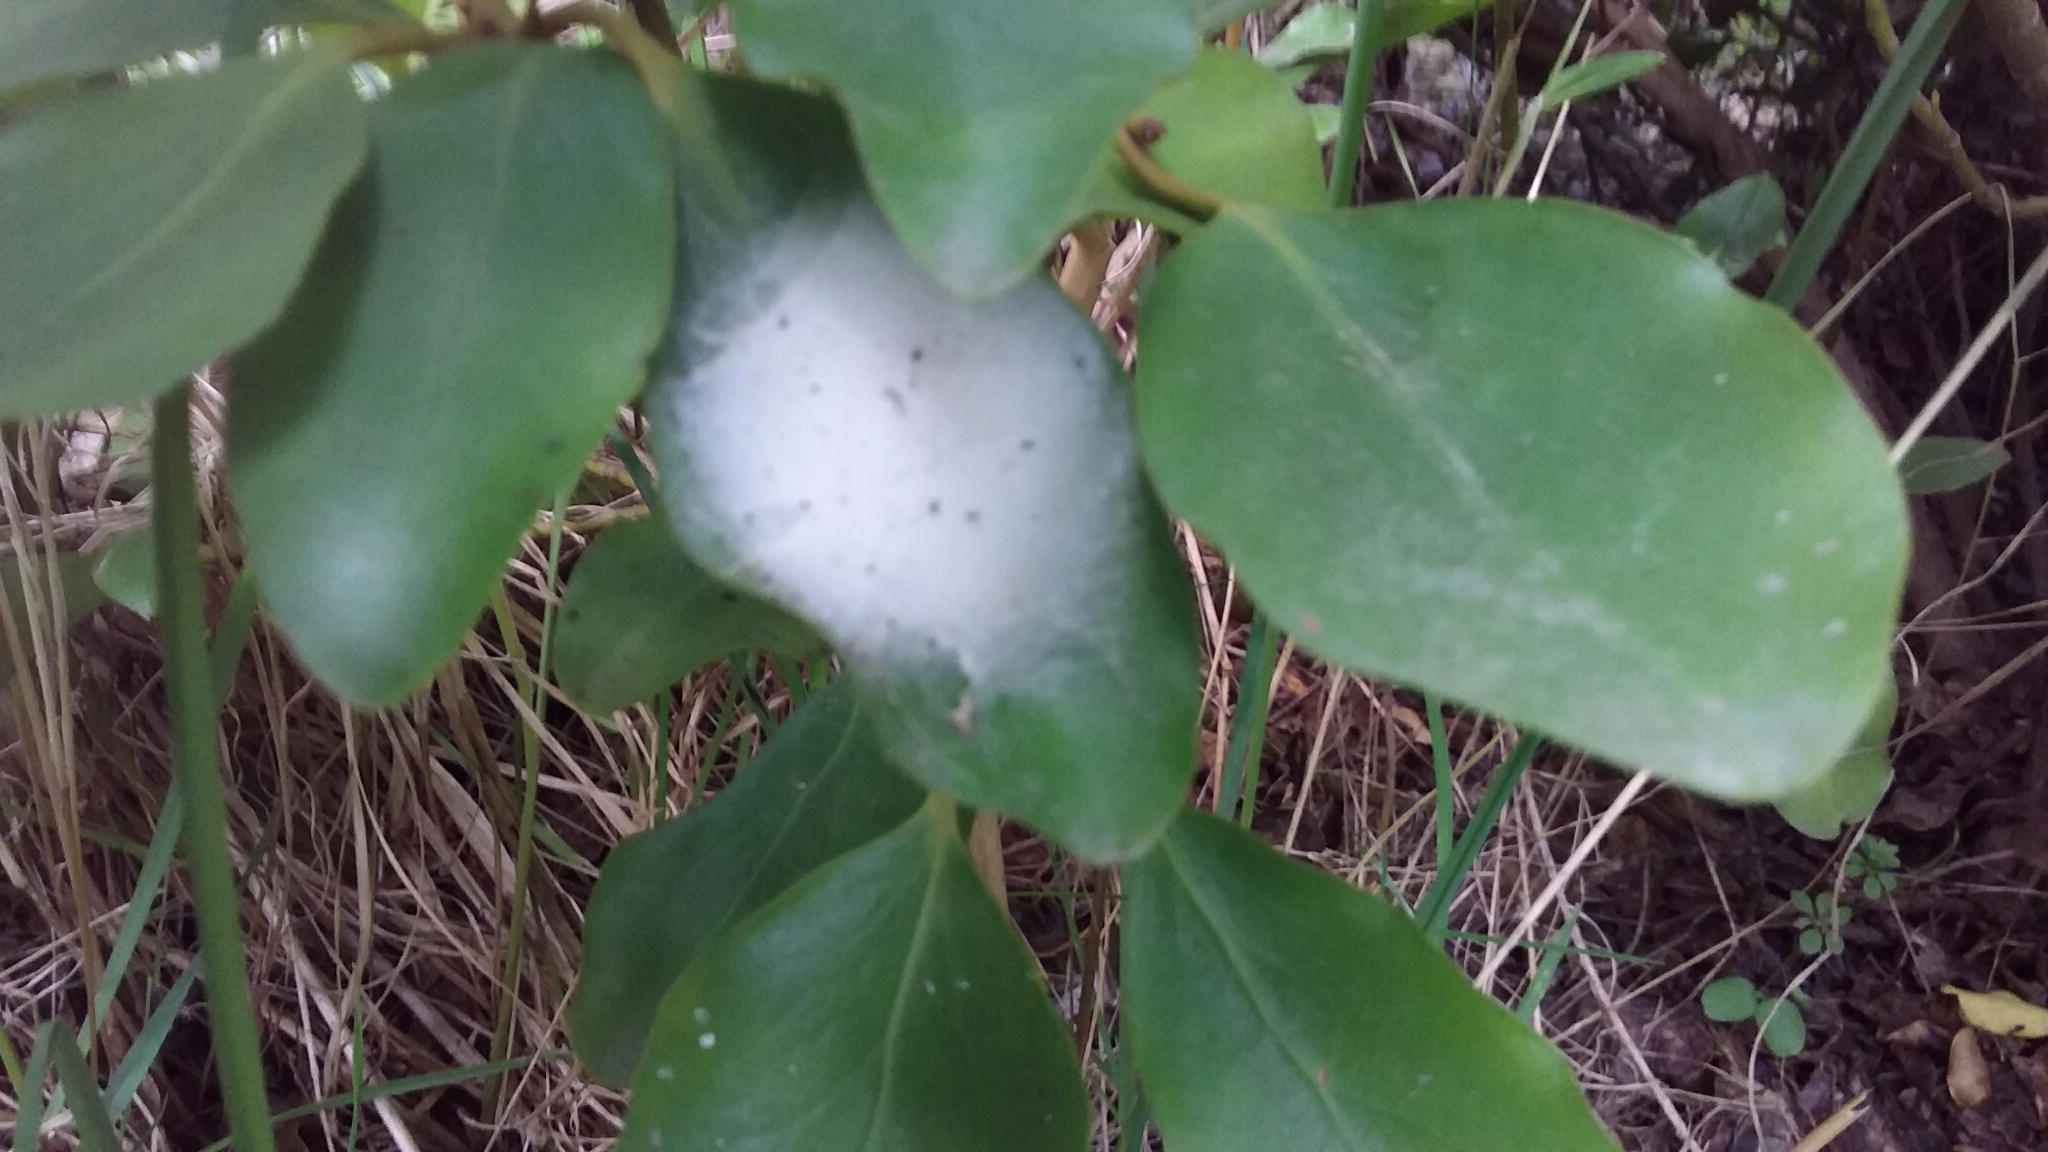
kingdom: Plantae
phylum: Tracheophyta
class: Magnoliopsida
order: Apiales
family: Griseliniaceae
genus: Griselinia
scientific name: Griselinia littoralis
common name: New zealand broadleaf
